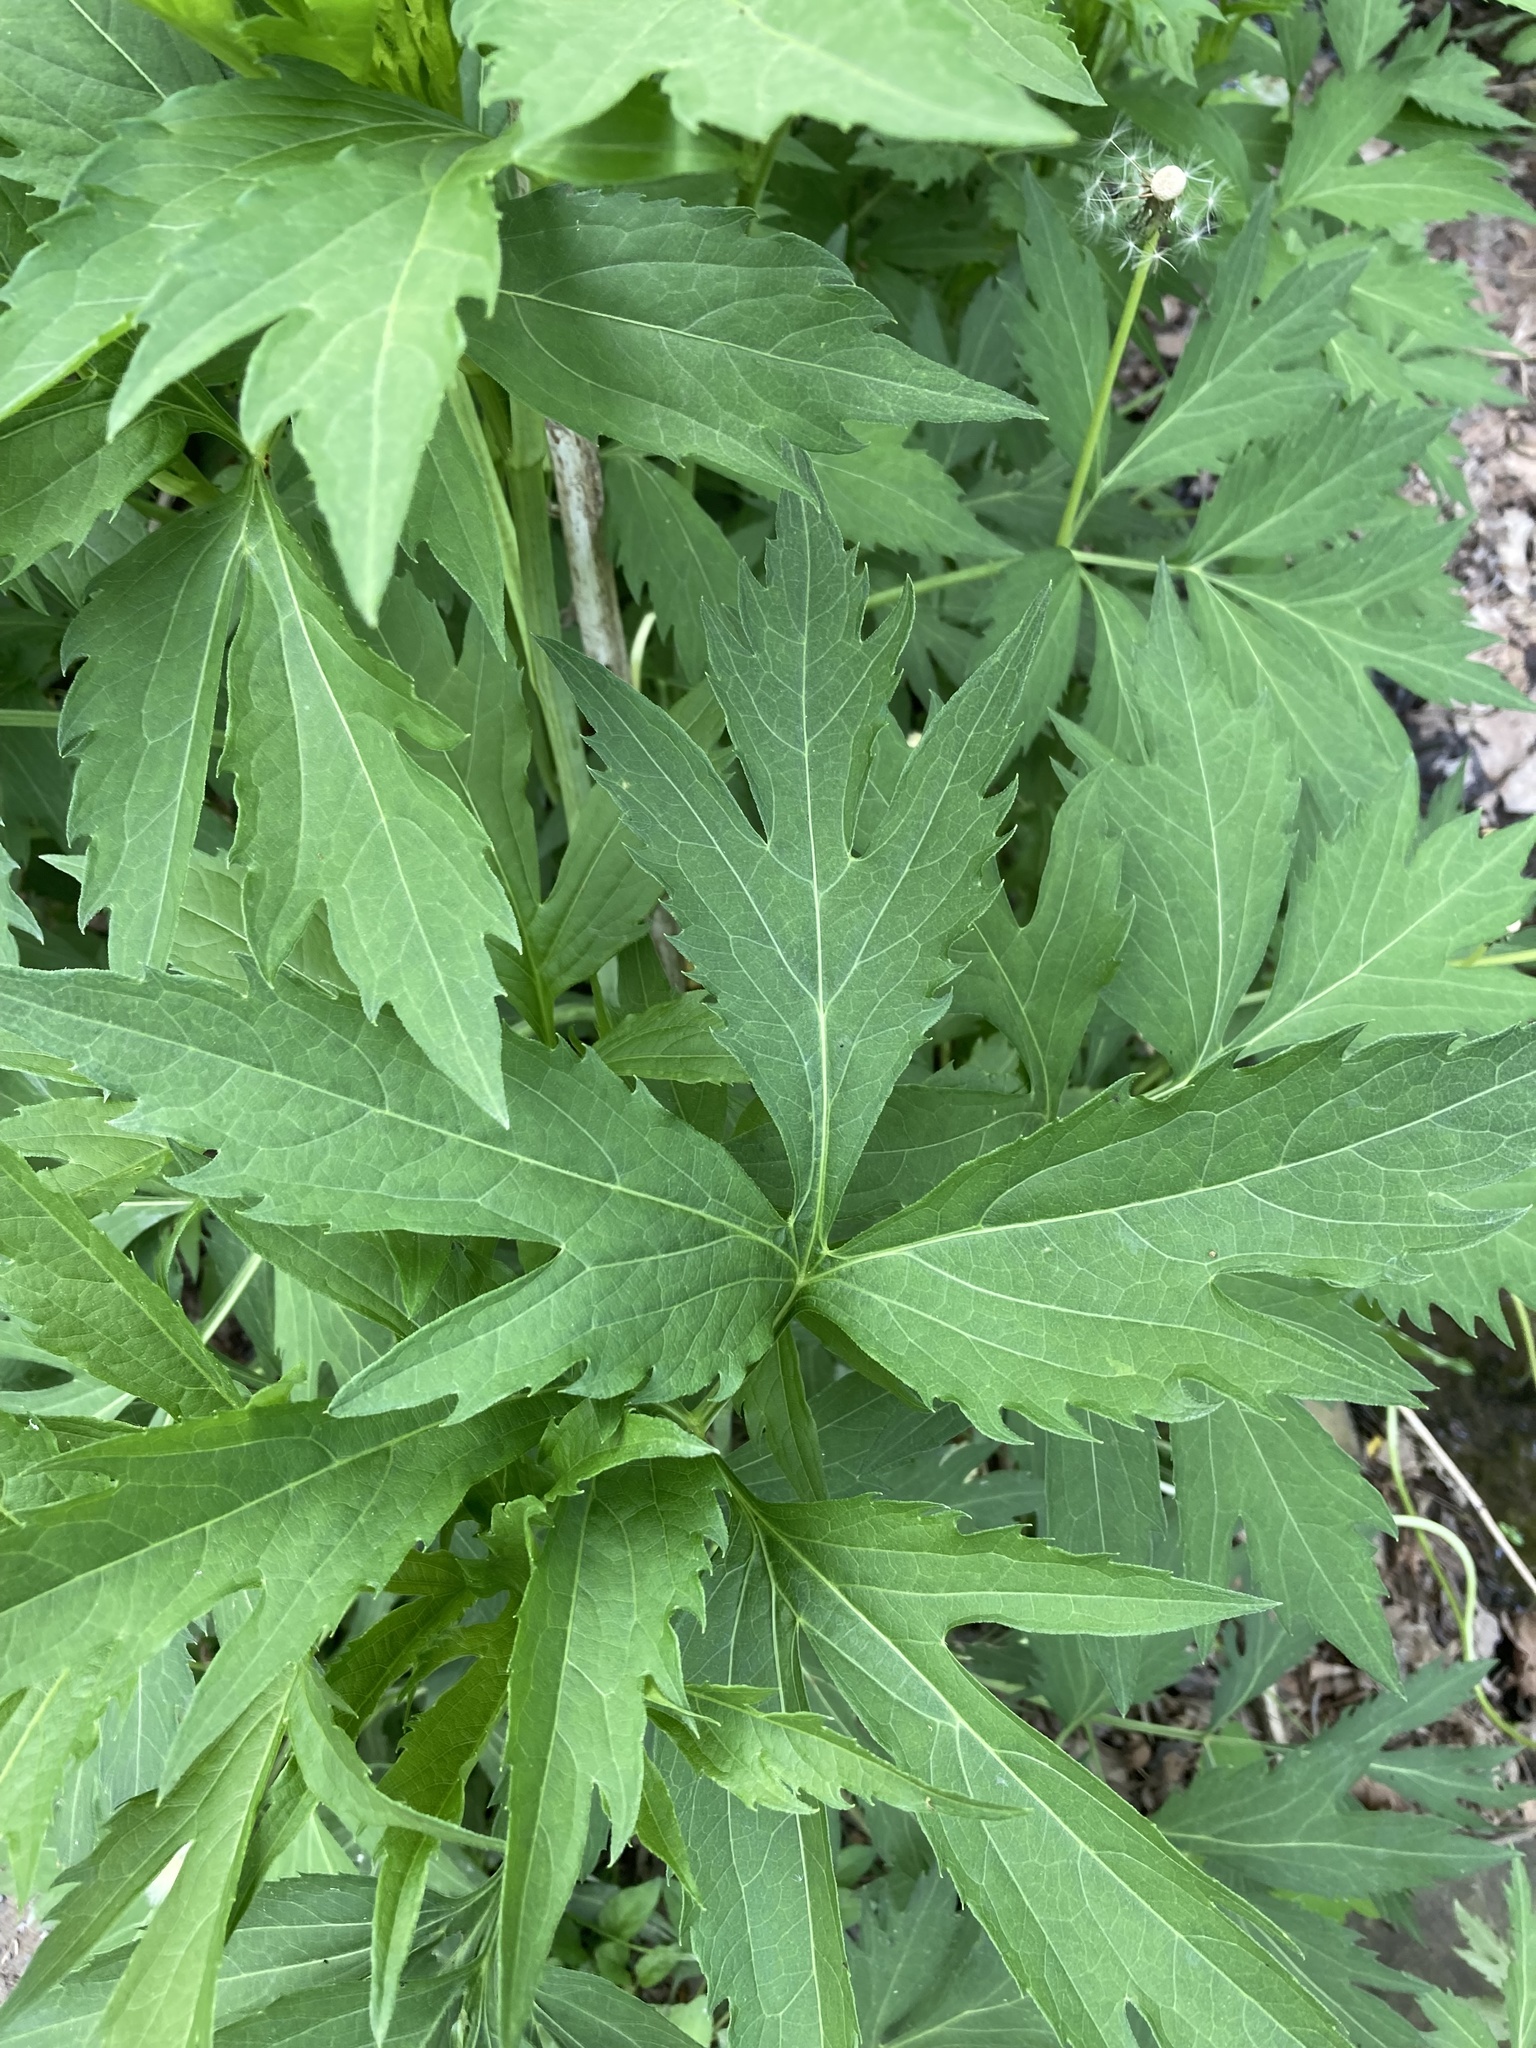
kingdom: Plantae
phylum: Tracheophyta
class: Magnoliopsida
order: Asterales
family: Asteraceae
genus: Rudbeckia
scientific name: Rudbeckia laciniata
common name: Coneflower
